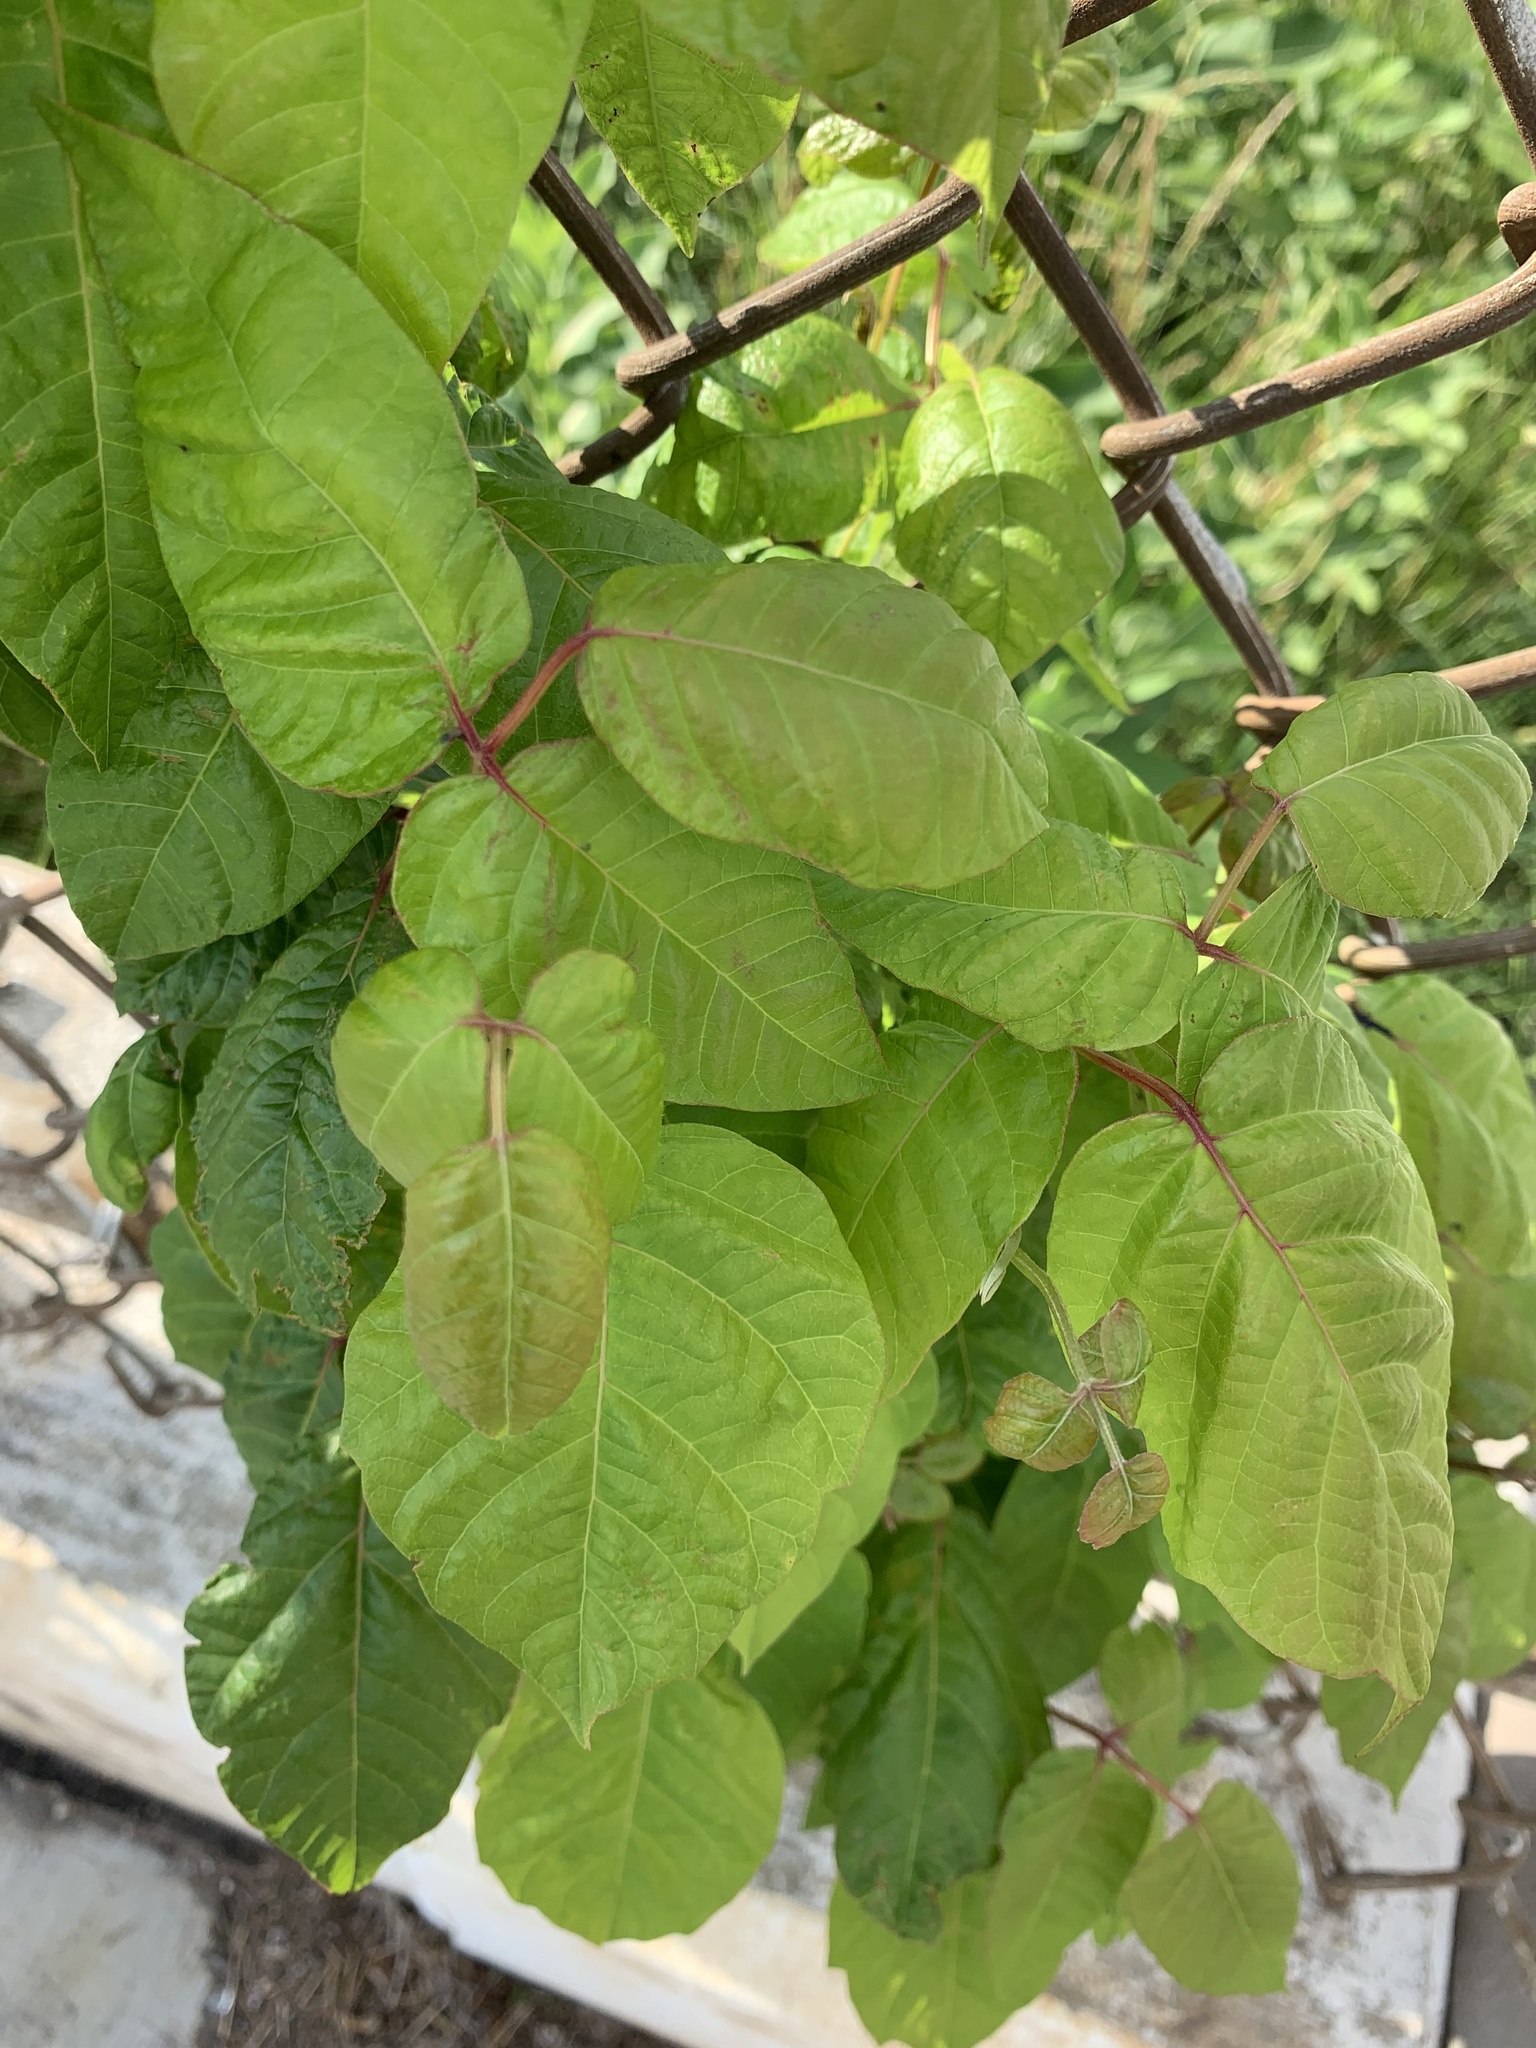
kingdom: Plantae
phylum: Tracheophyta
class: Magnoliopsida
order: Sapindales
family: Anacardiaceae
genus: Toxicodendron
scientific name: Toxicodendron radicans
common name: Poison ivy
